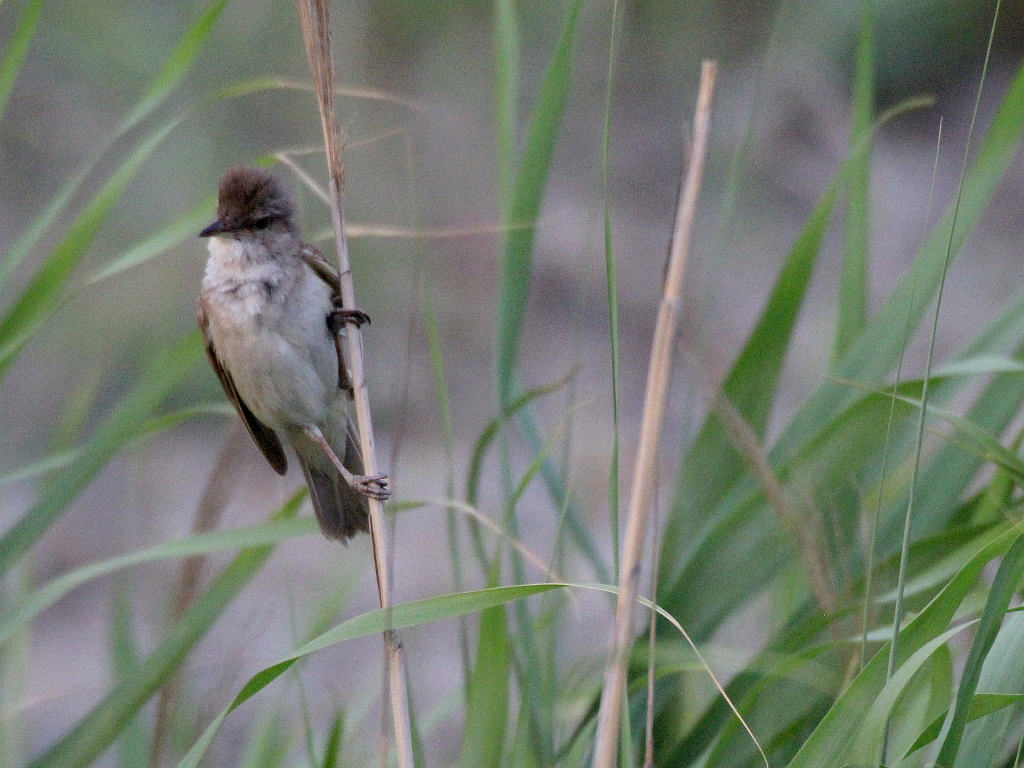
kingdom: Animalia
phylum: Chordata
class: Aves
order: Passeriformes
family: Acrocephalidae
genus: Acrocephalus
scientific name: Acrocephalus arundinaceus
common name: Great reed warbler
